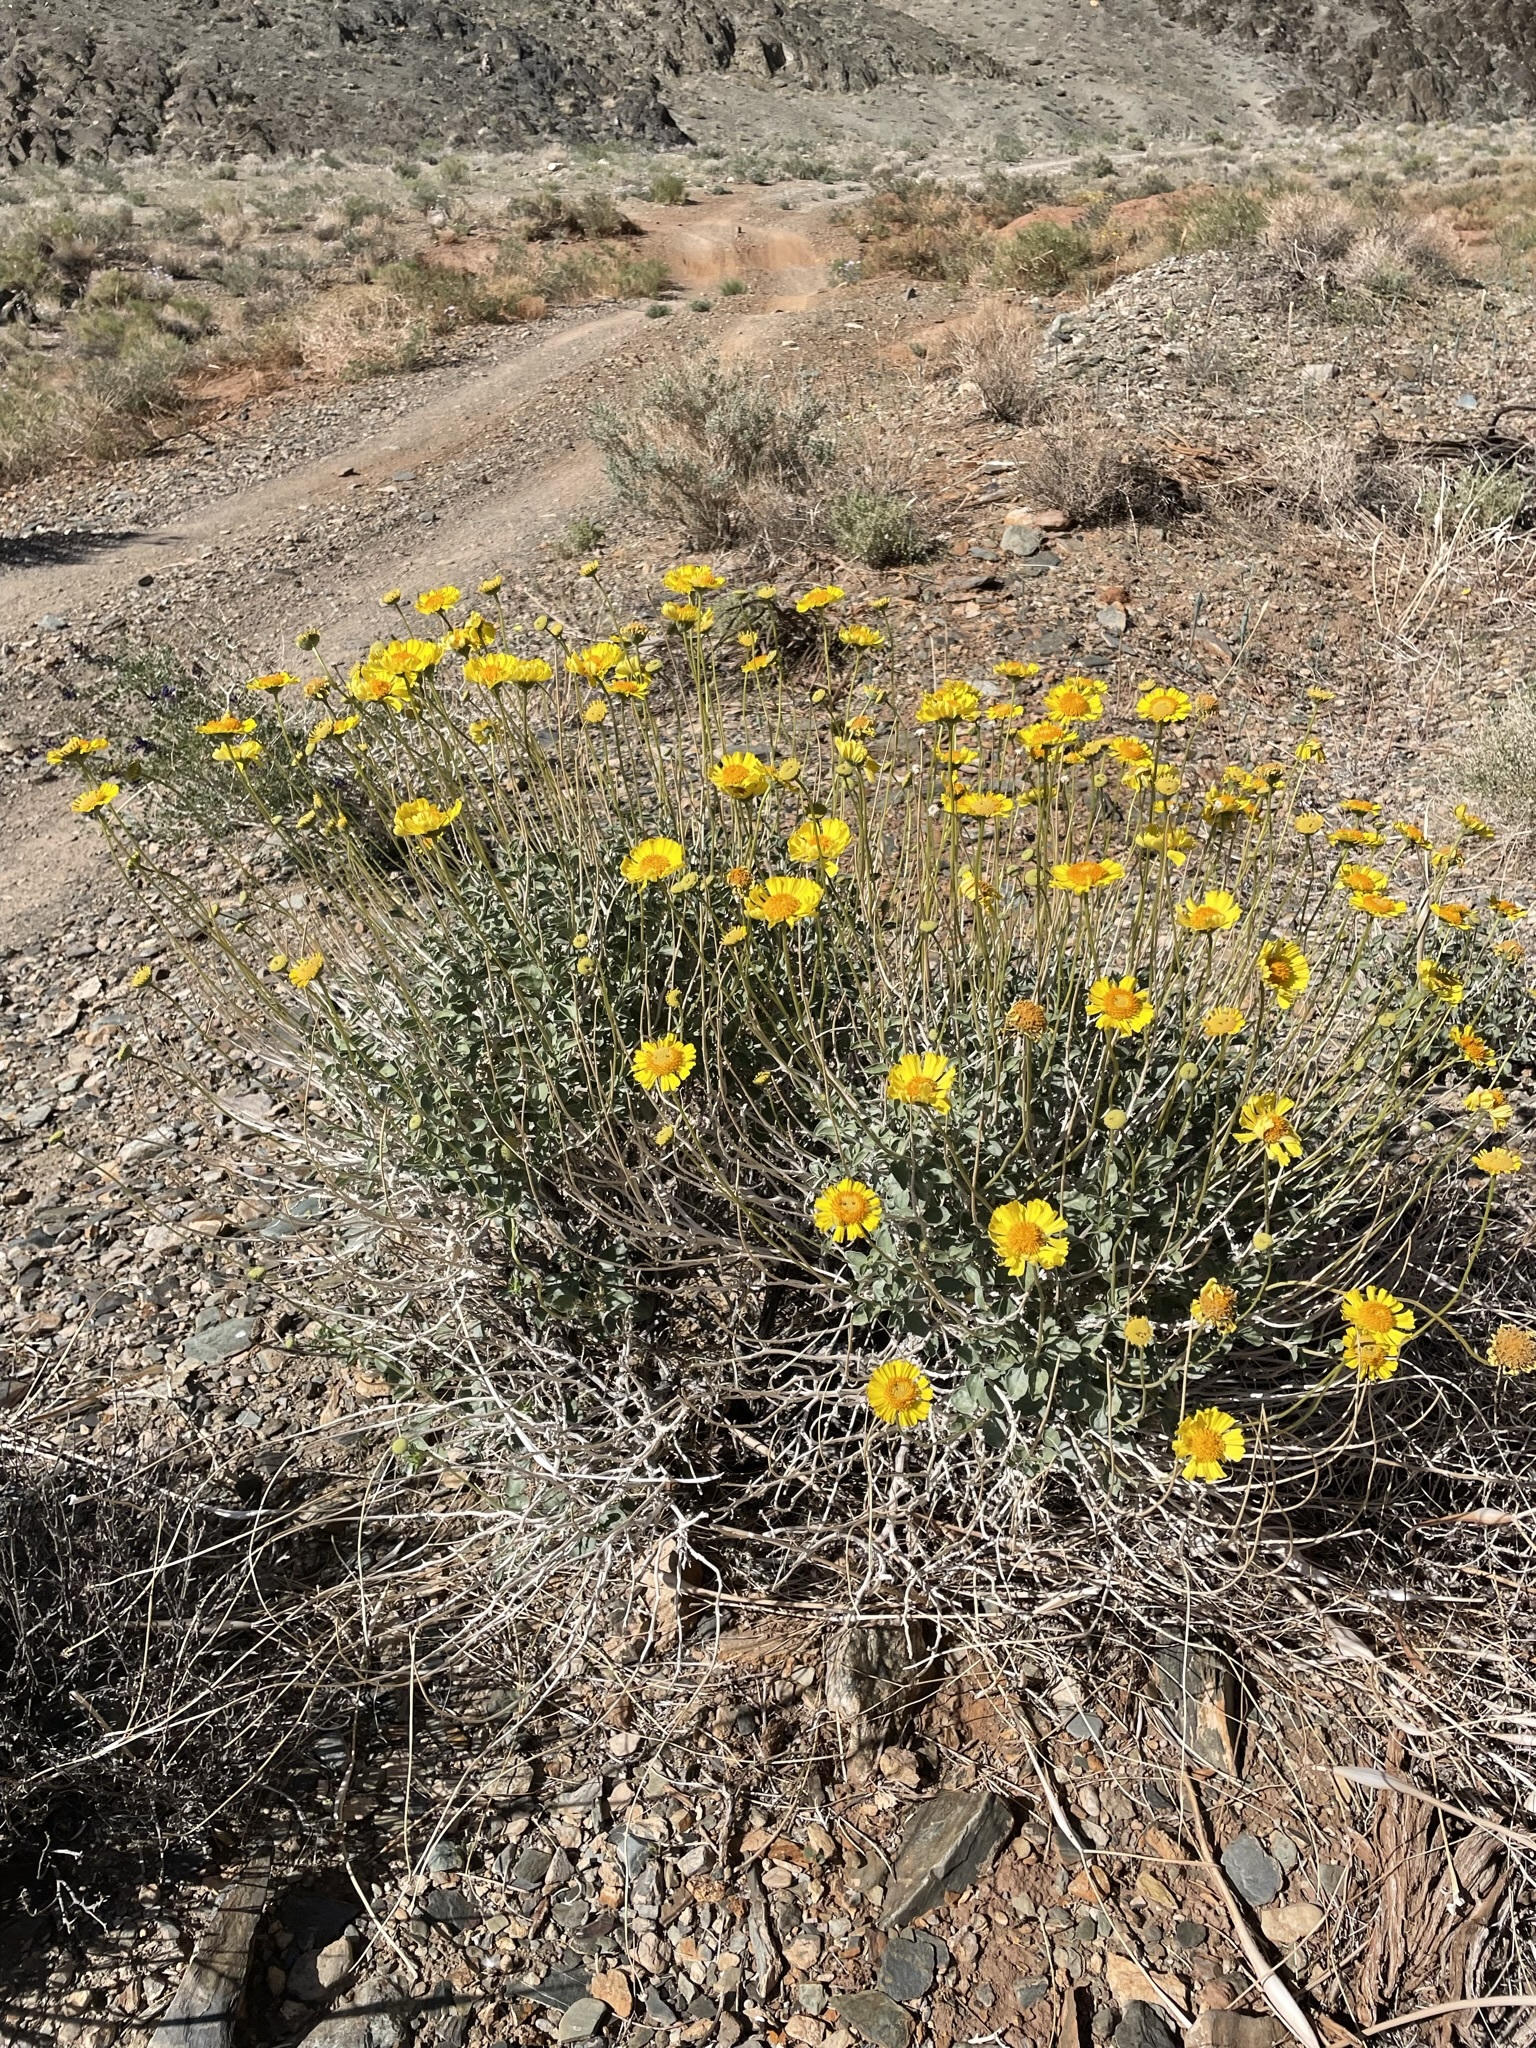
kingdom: Plantae
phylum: Tracheophyta
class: Magnoliopsida
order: Asterales
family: Asteraceae
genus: Encelia
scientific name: Encelia actoni
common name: Acton encelia
